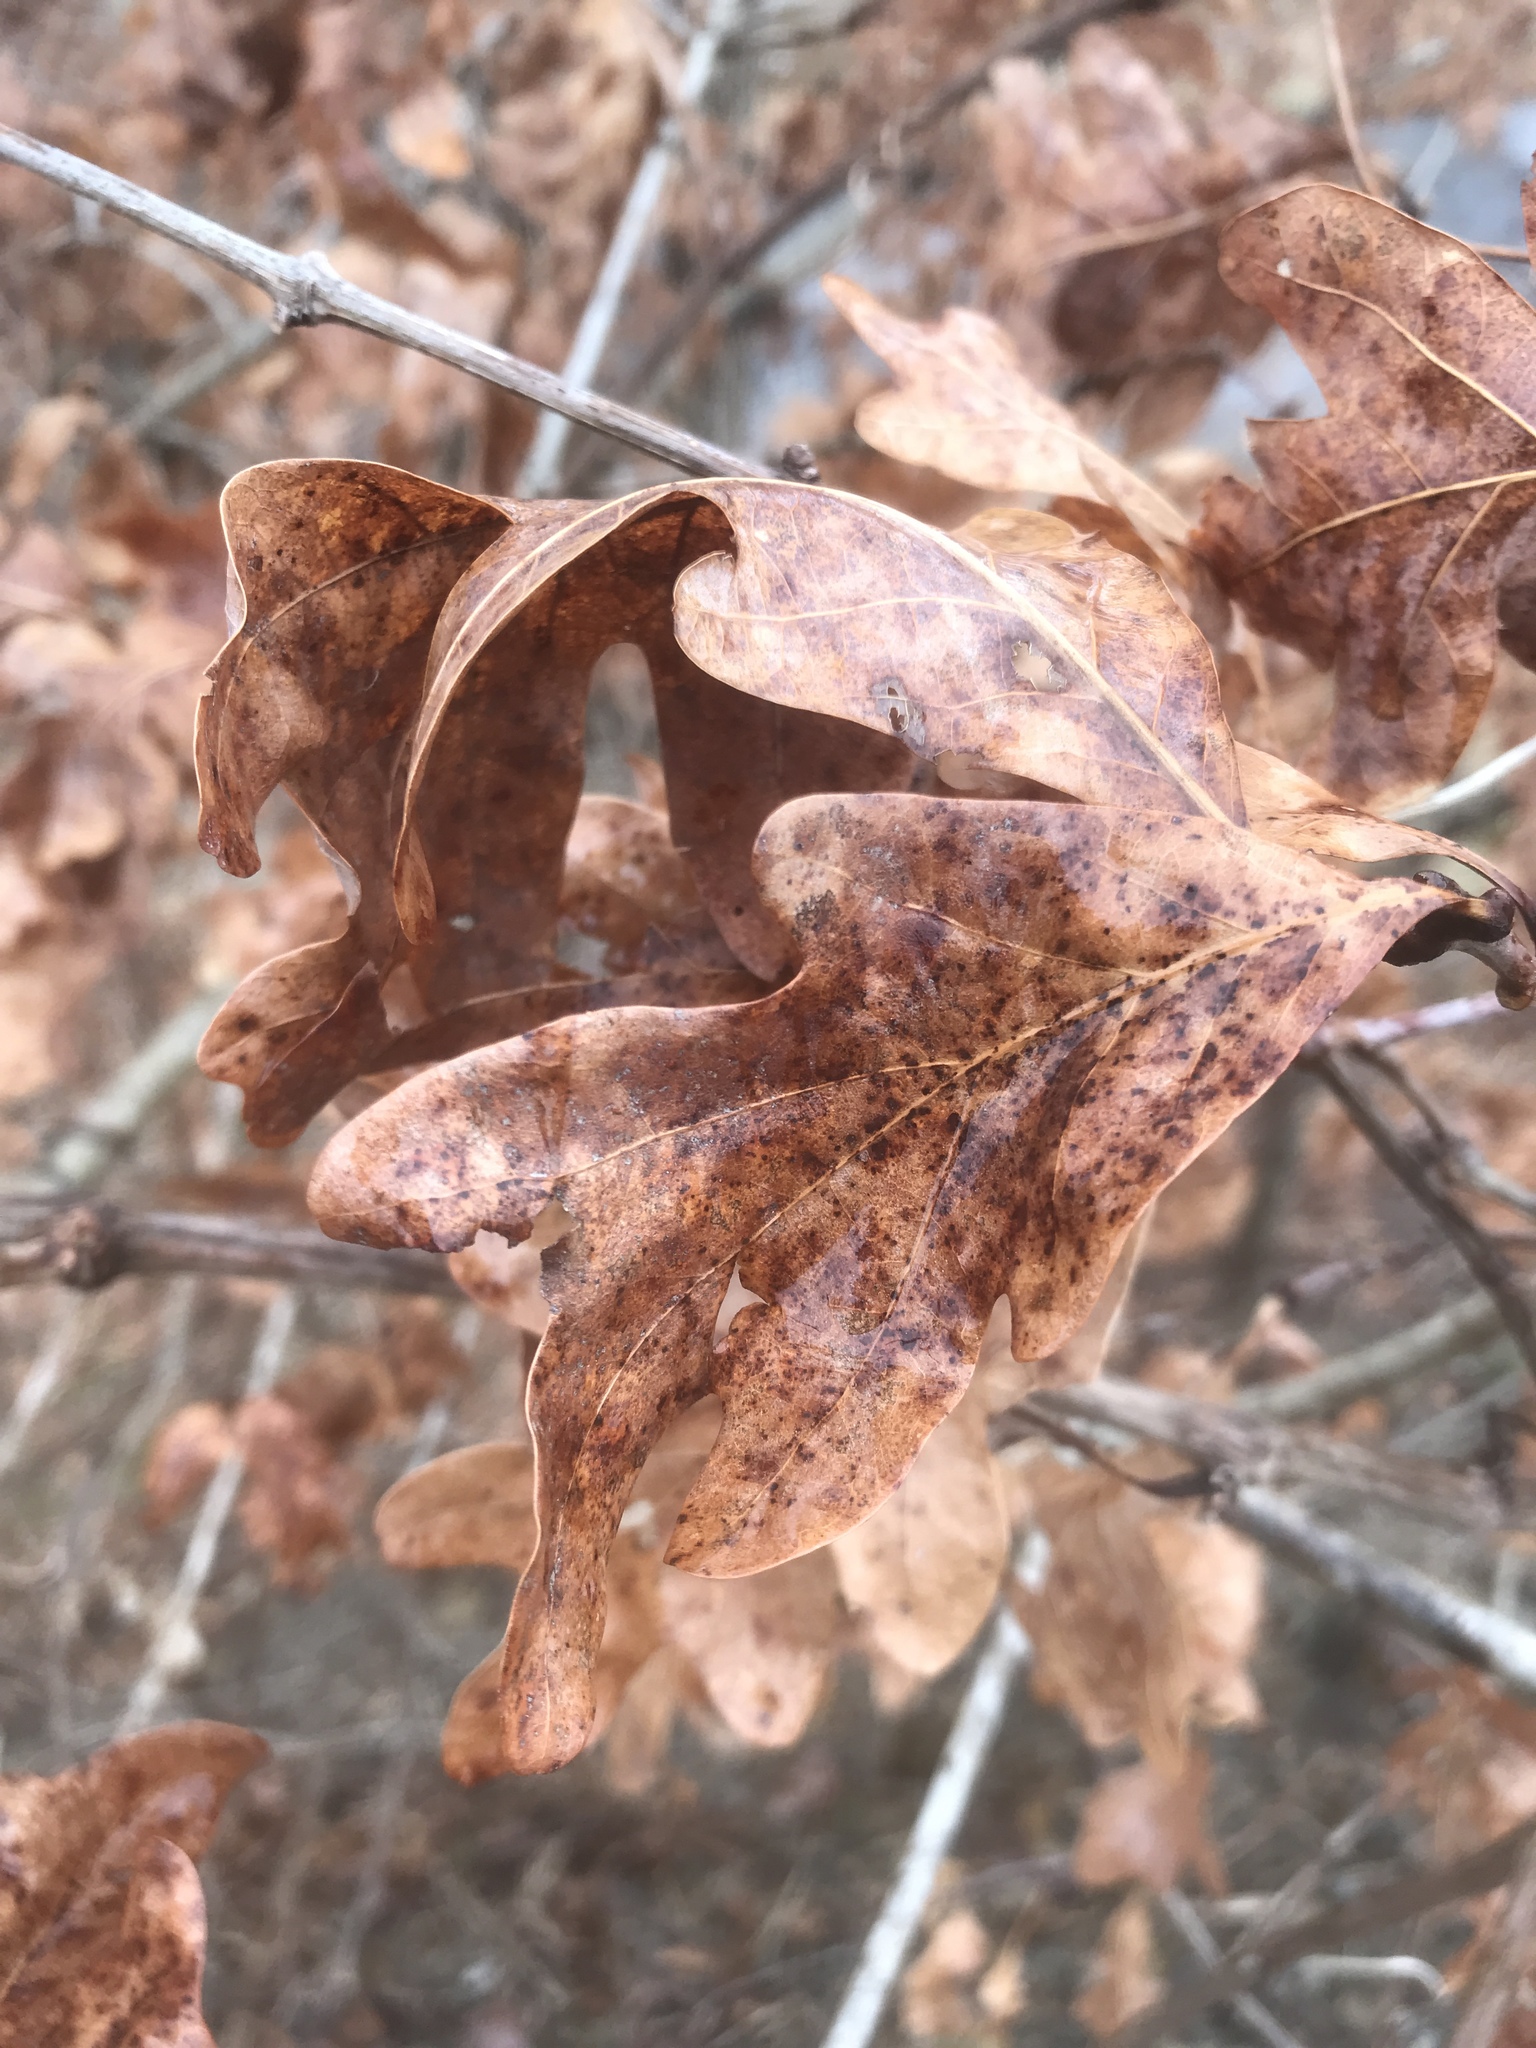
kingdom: Plantae
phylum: Tracheophyta
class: Magnoliopsida
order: Fagales
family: Fagaceae
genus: Quercus
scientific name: Quercus alba
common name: White oak
